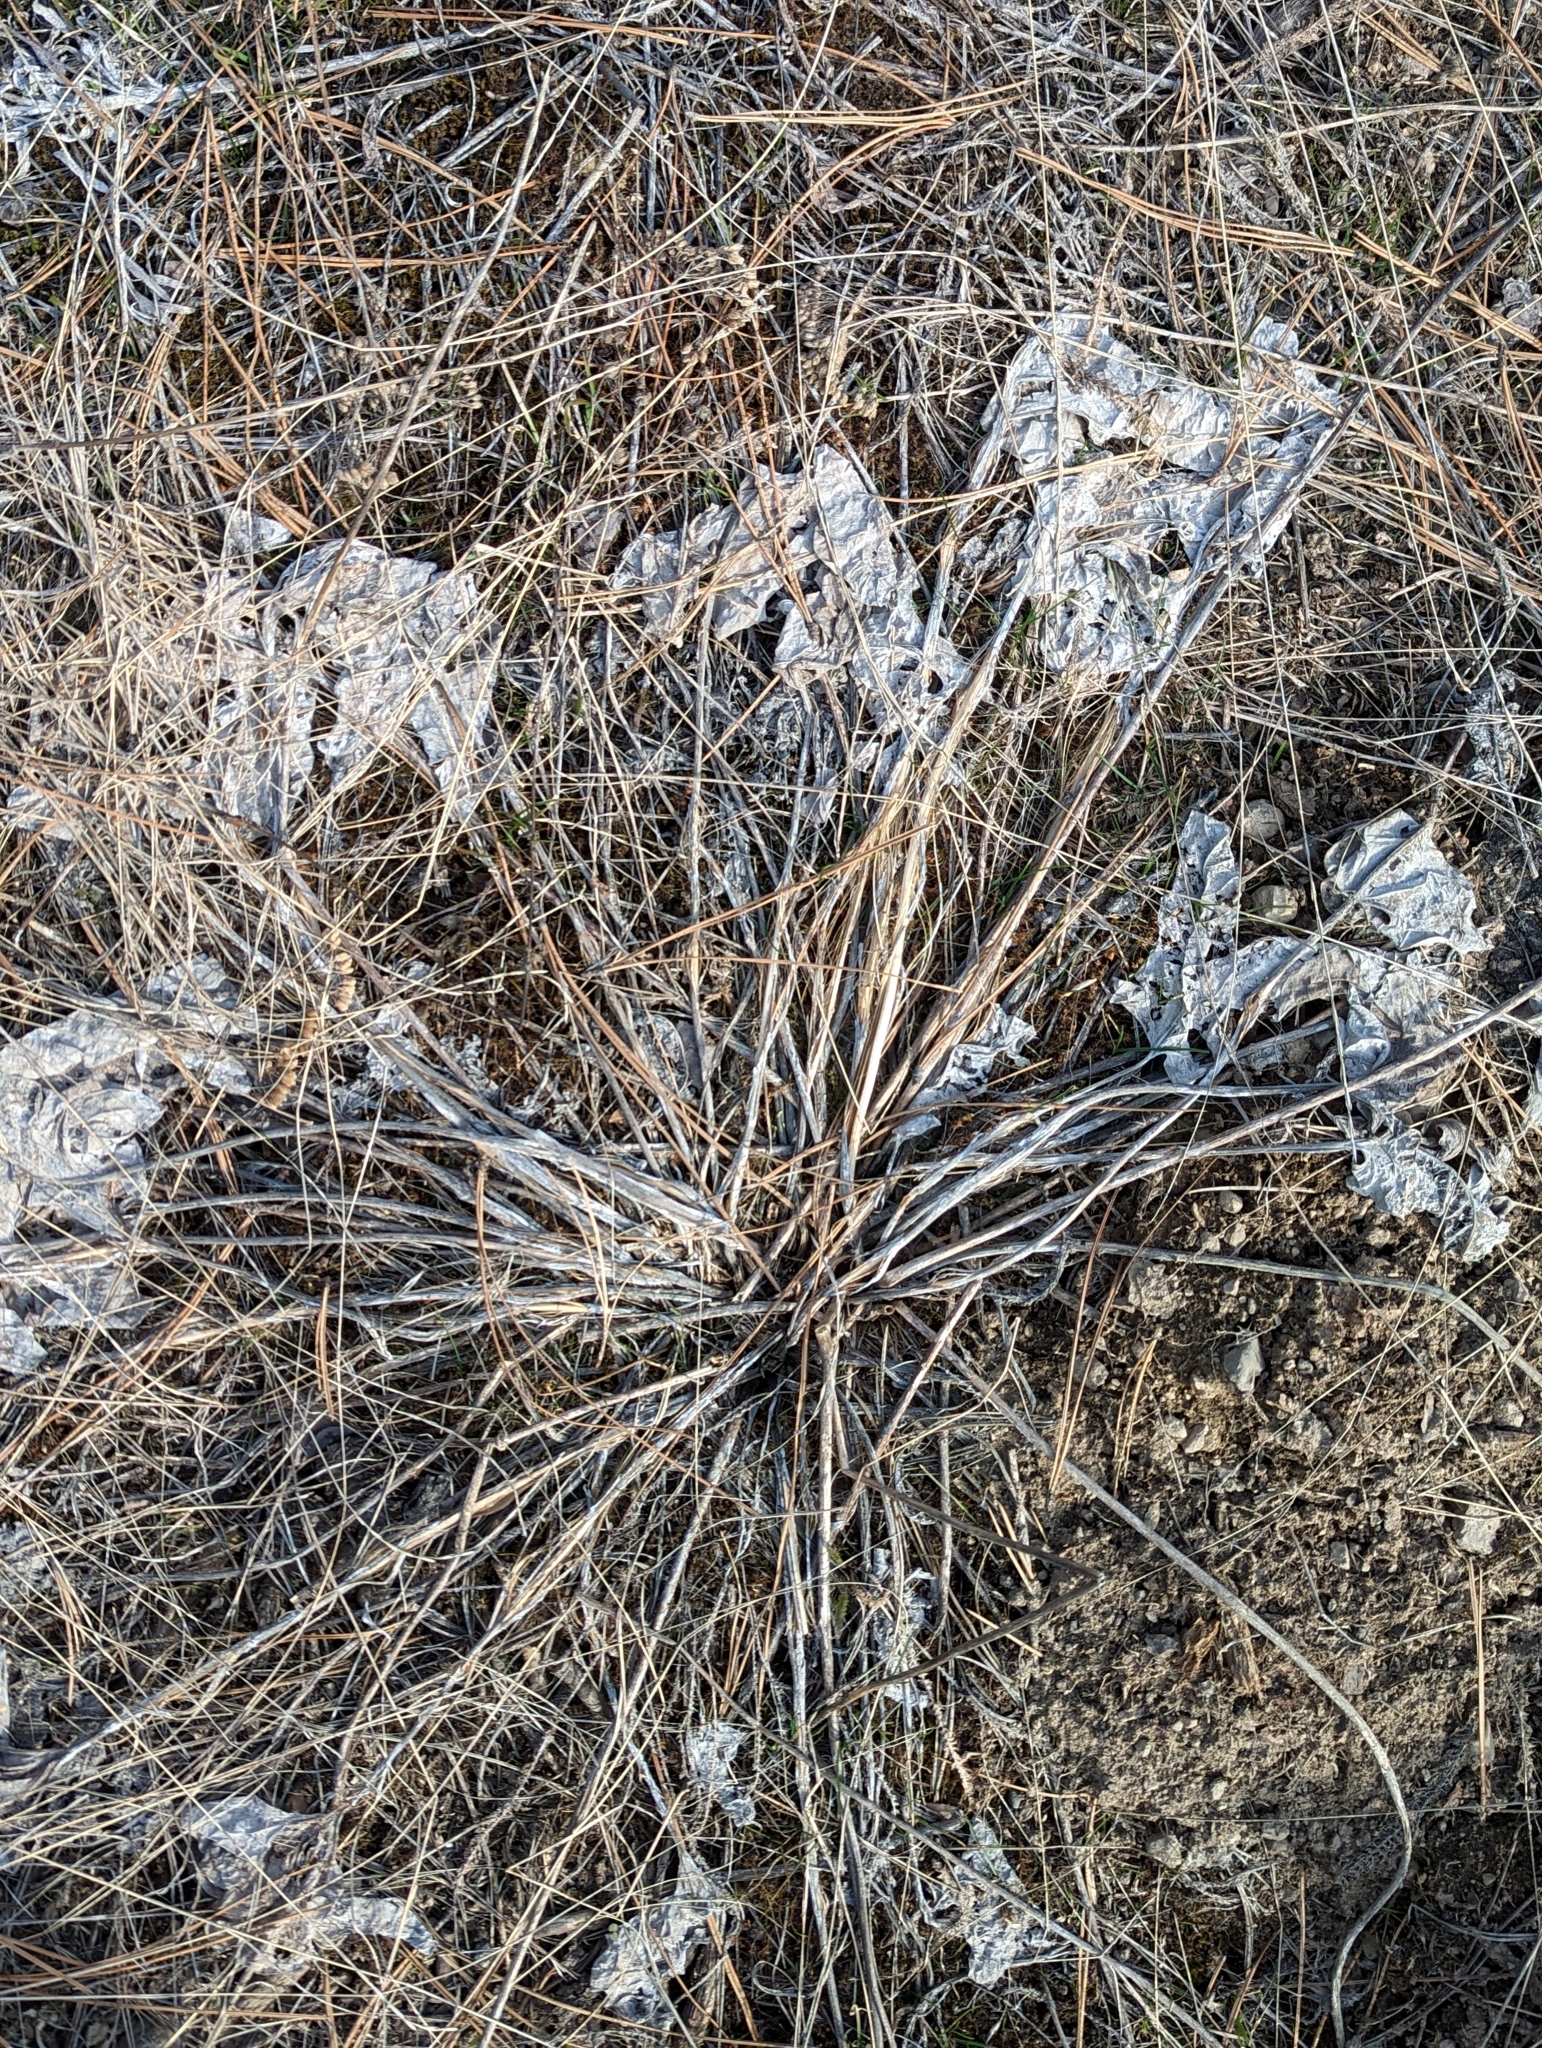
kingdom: Plantae
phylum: Tracheophyta
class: Magnoliopsida
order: Asterales
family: Asteraceae
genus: Wyethia
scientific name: Wyethia sagittata
